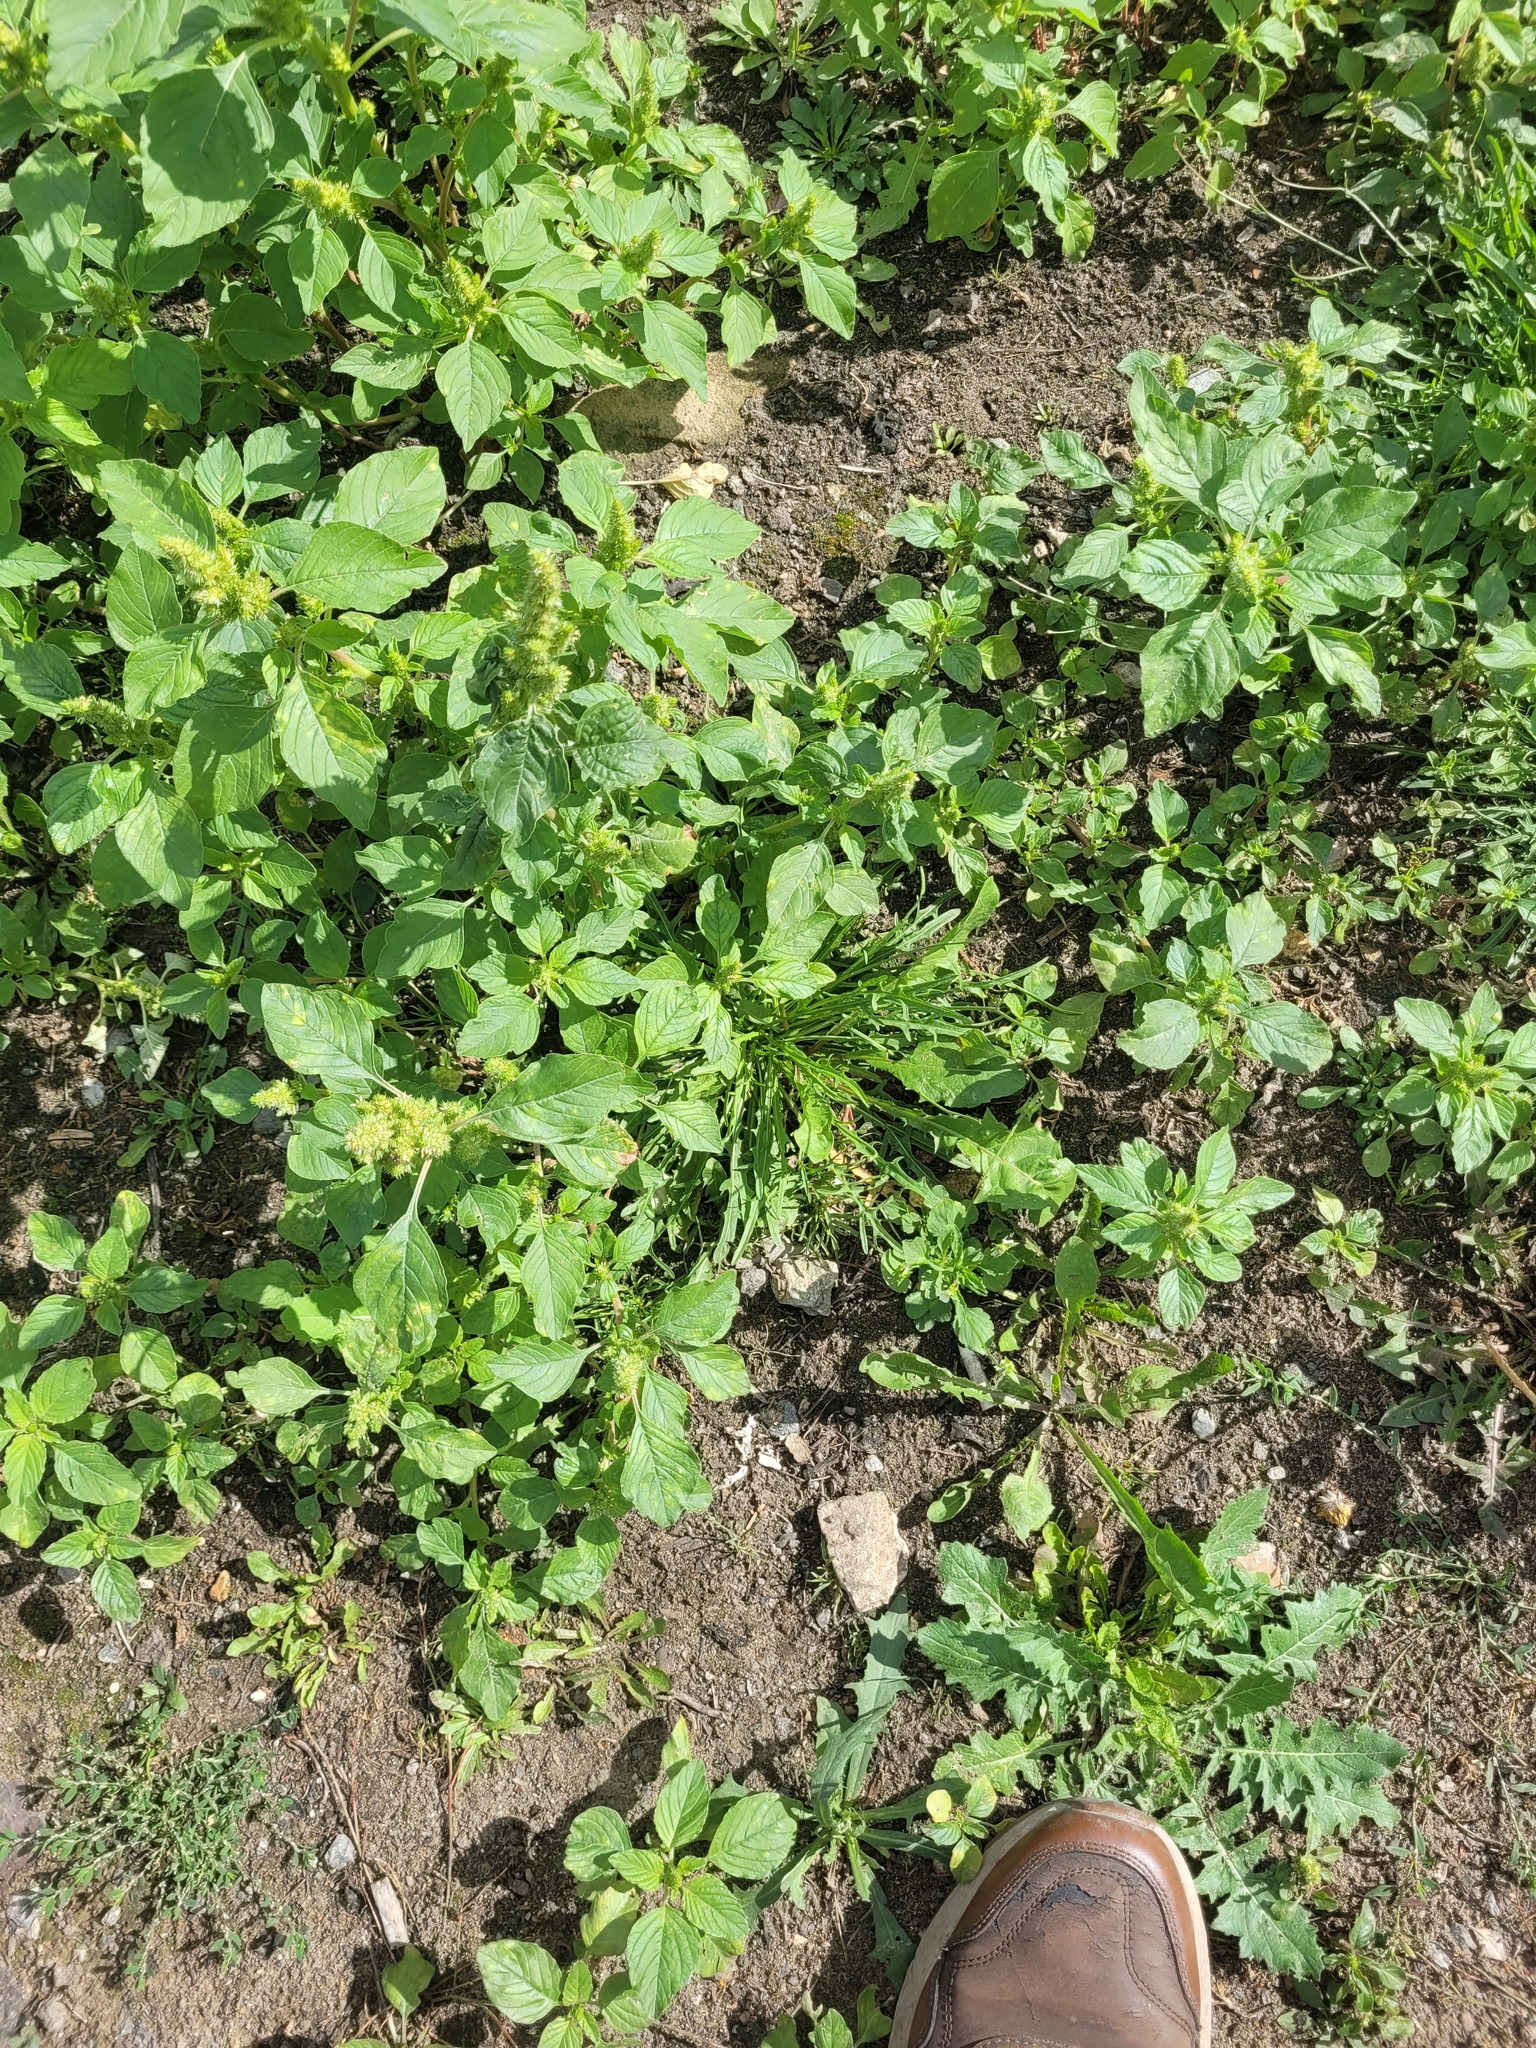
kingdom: Plantae
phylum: Tracheophyta
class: Magnoliopsida
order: Asterales
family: Asteraceae
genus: Scorzoneroides
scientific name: Scorzoneroides autumnalis
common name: Autumn hawkbit
